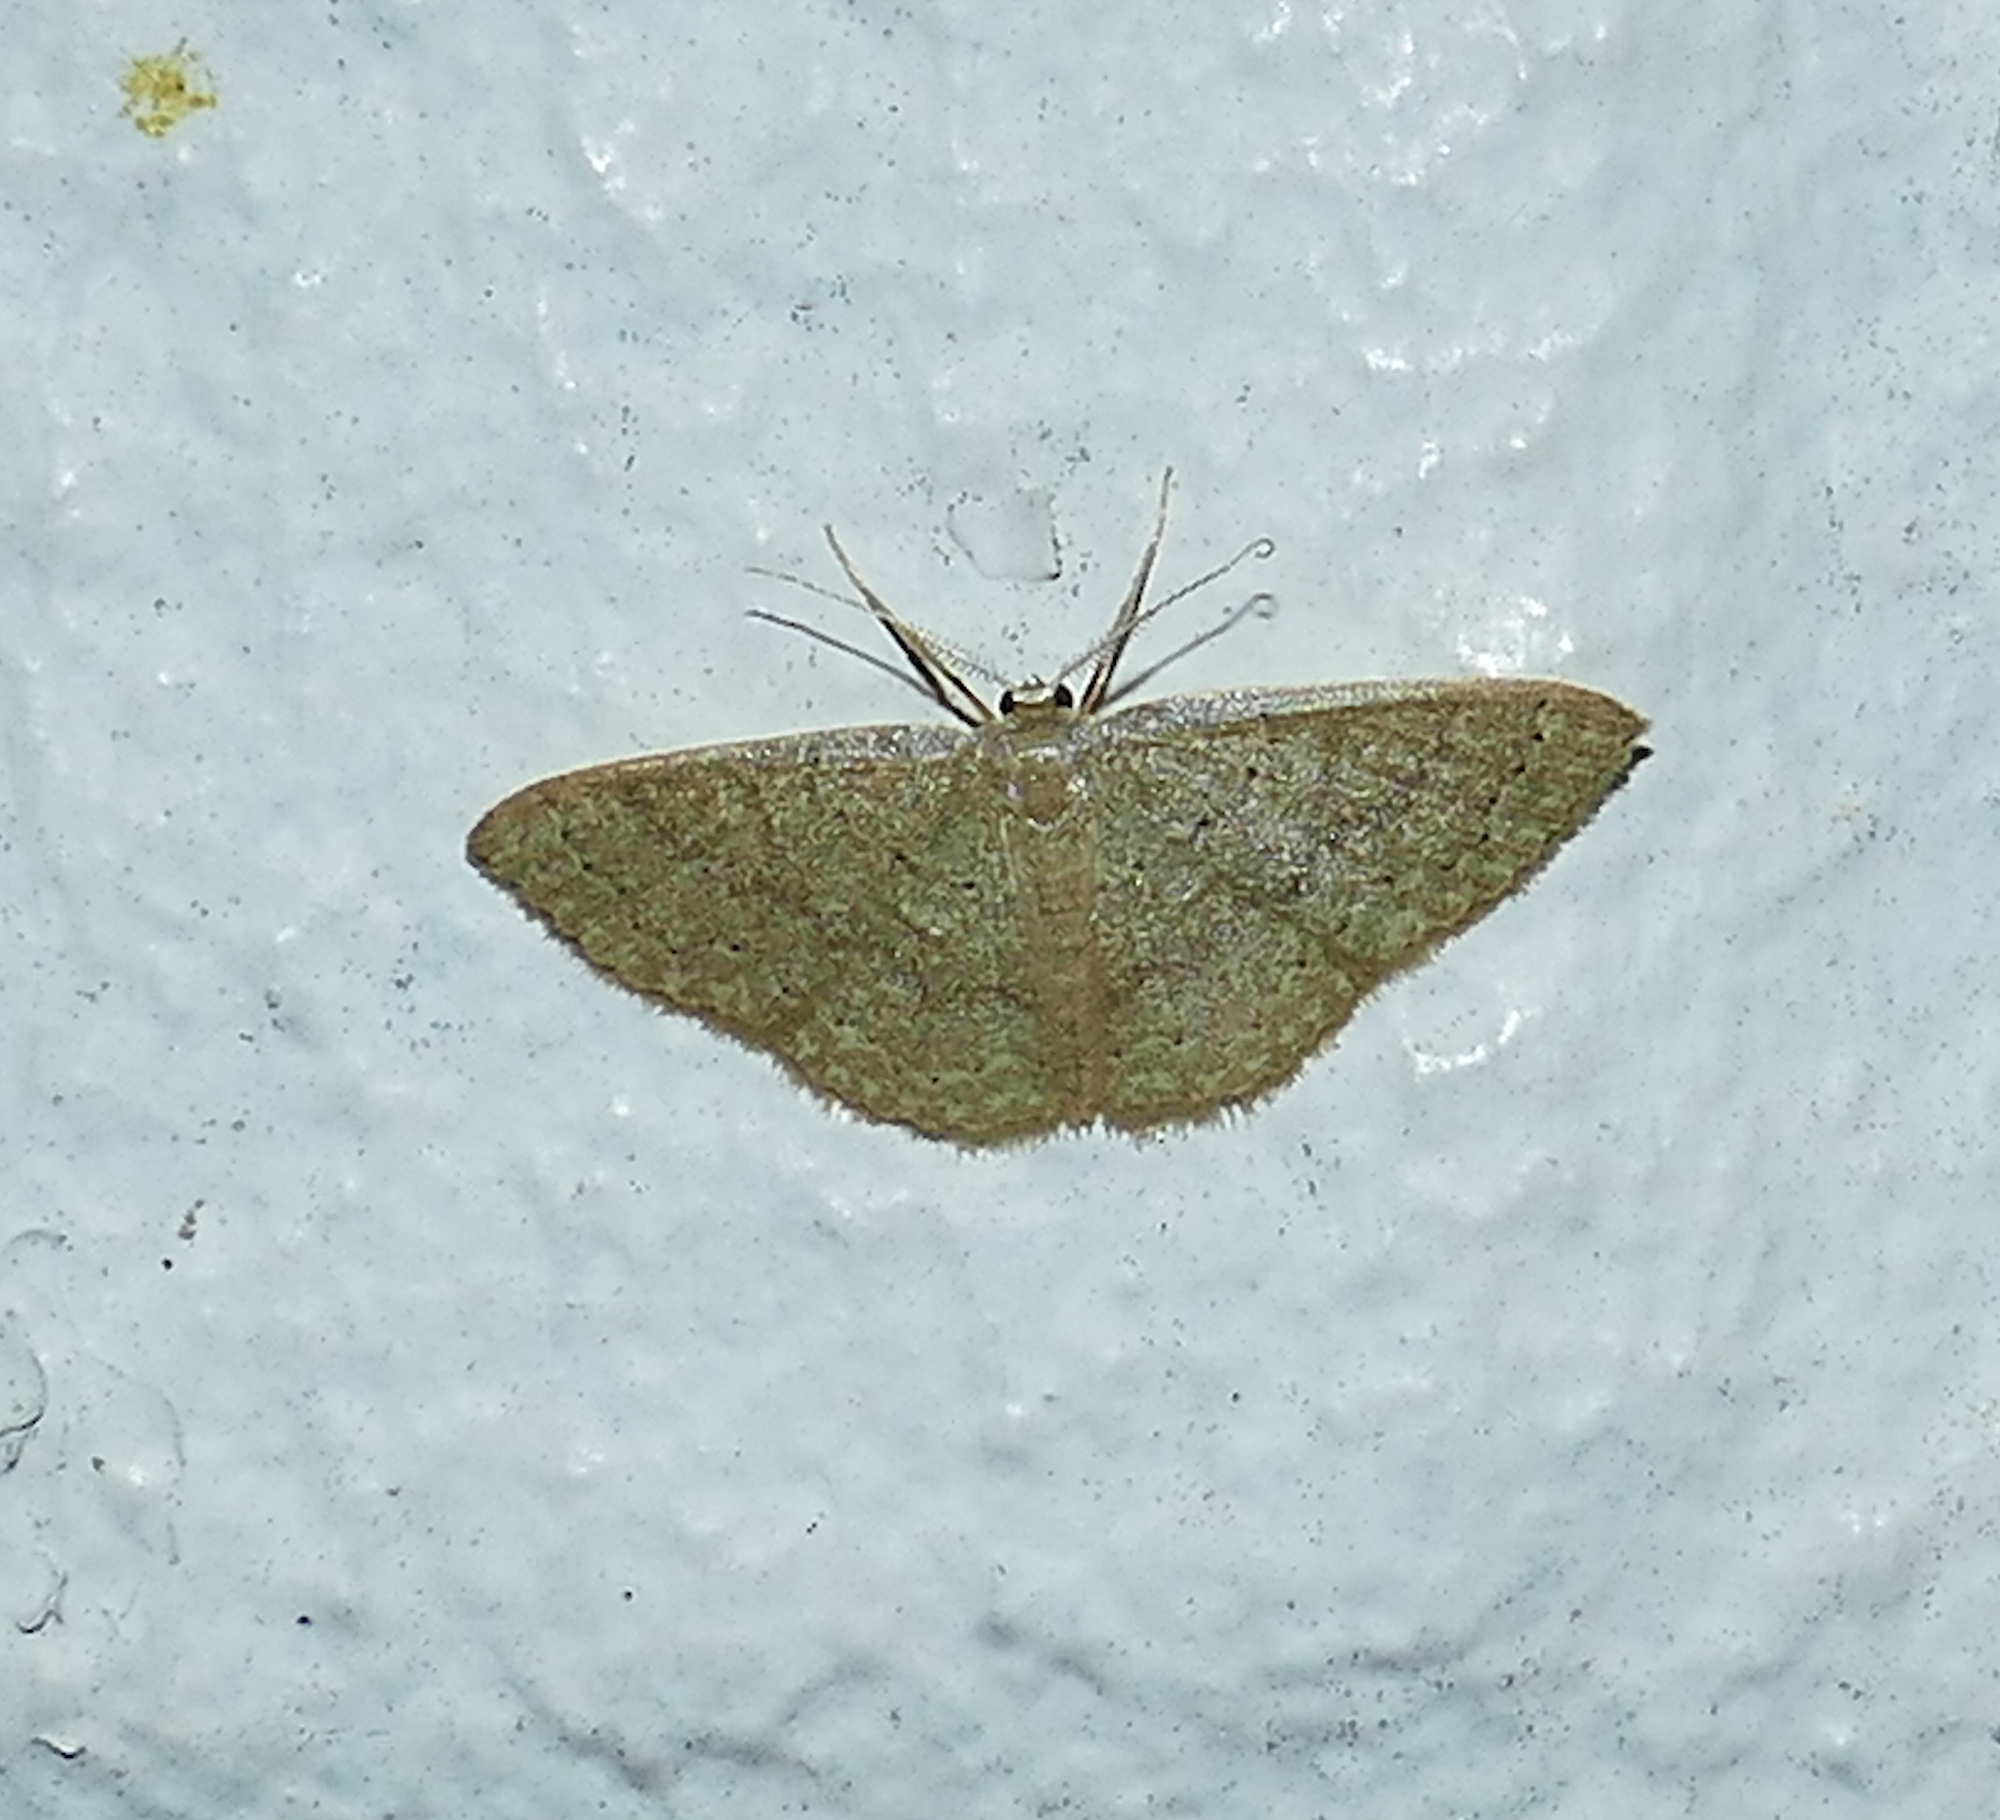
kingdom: Animalia
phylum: Arthropoda
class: Insecta
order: Lepidoptera
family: Geometridae
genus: Pleuroprucha
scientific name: Pleuroprucha insulsaria
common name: Common tan wave
